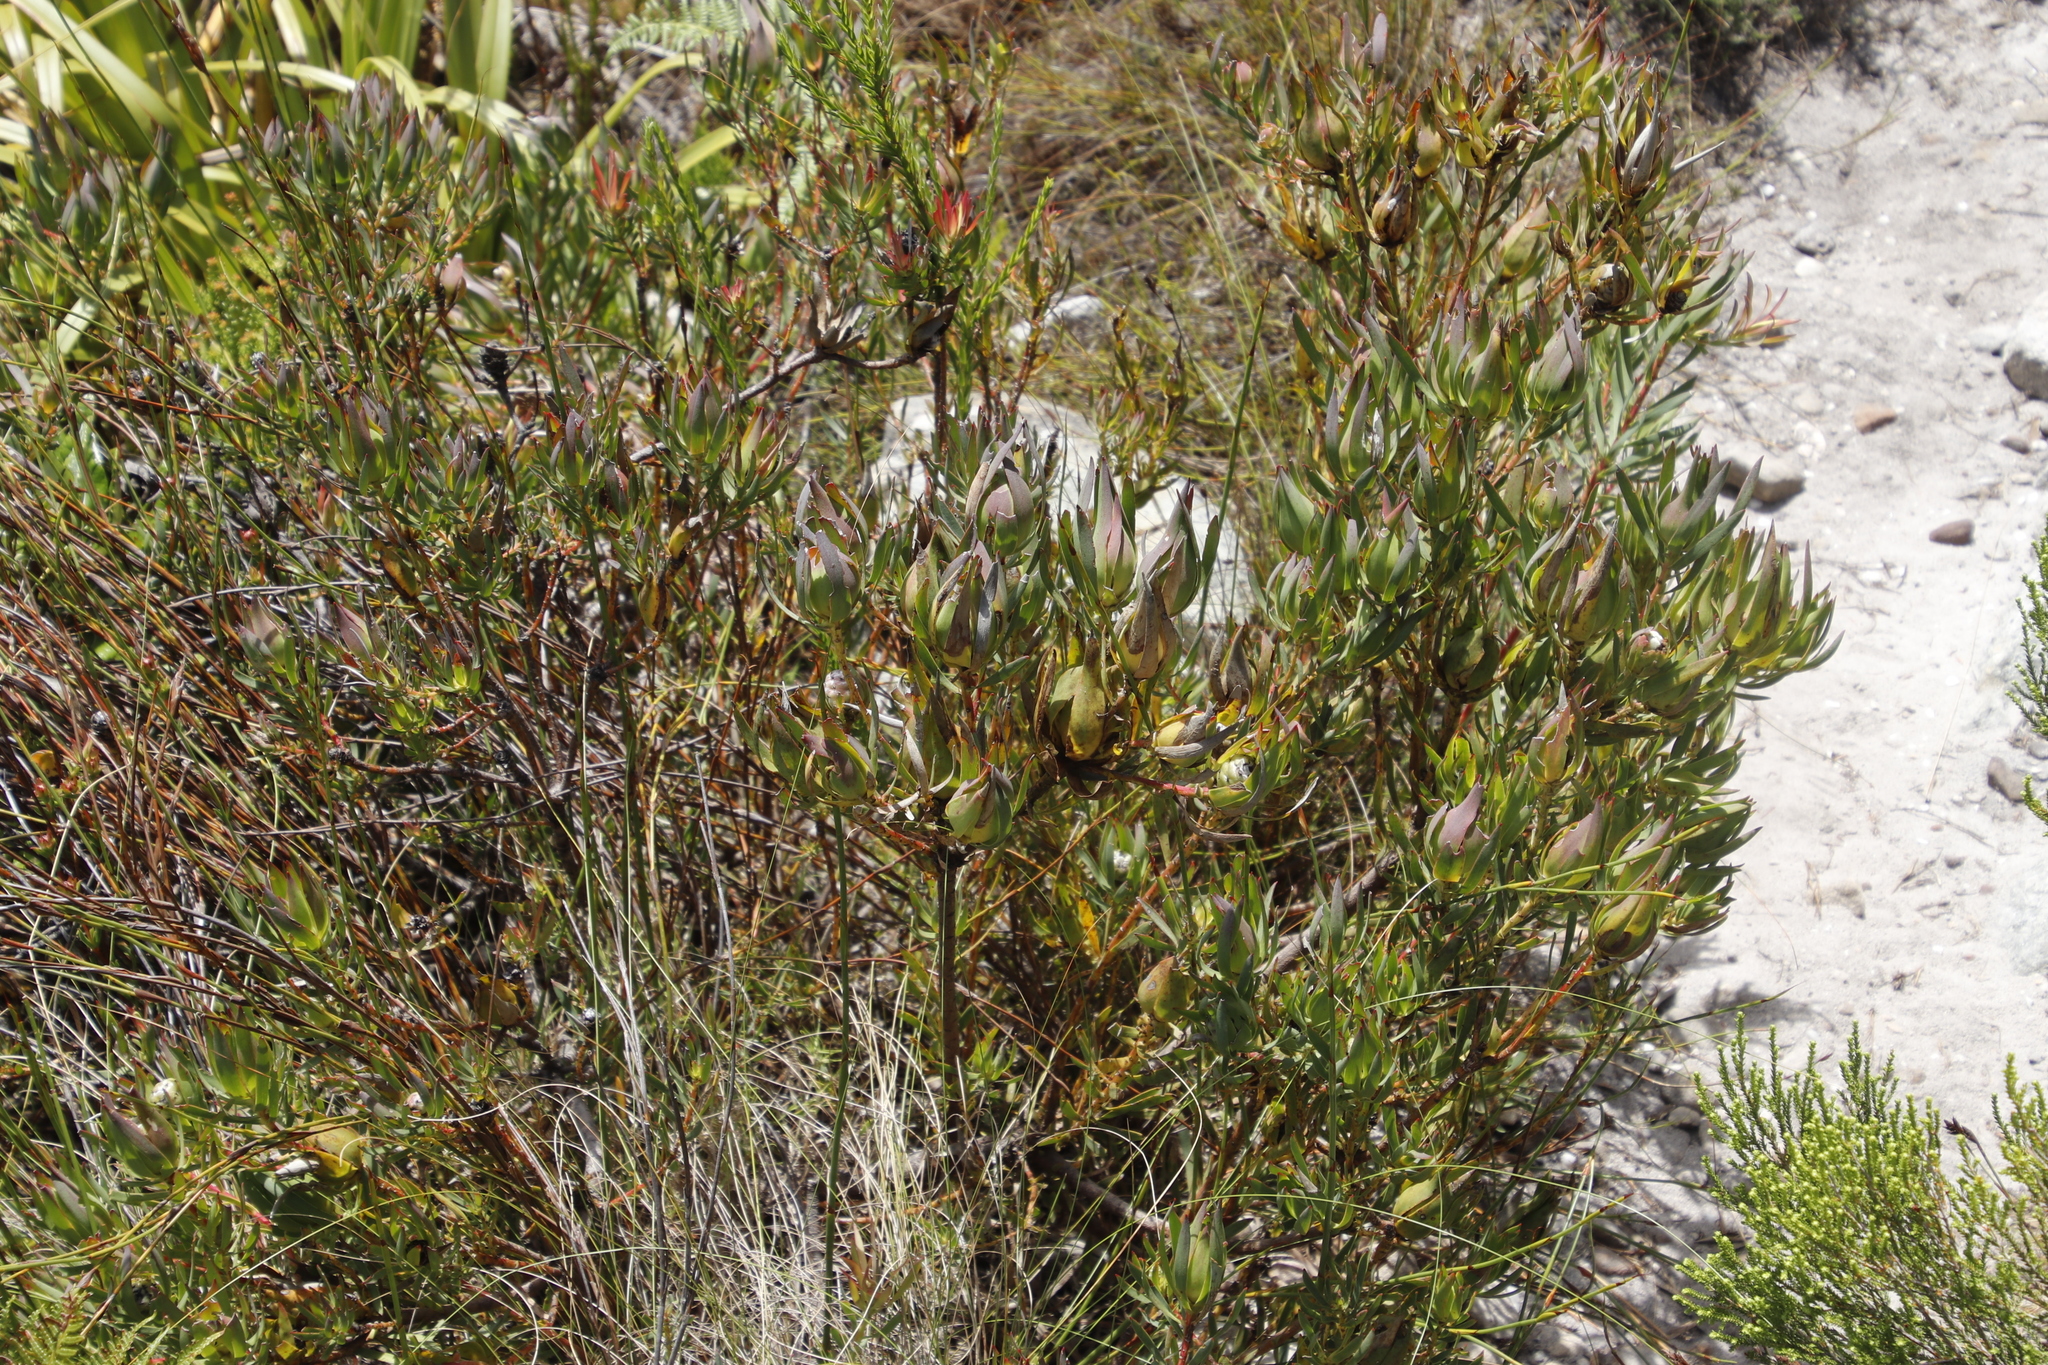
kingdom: Plantae
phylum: Tracheophyta
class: Magnoliopsida
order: Proteales
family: Proteaceae
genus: Leucadendron
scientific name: Leucadendron salignum
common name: Common sunshine conebush
